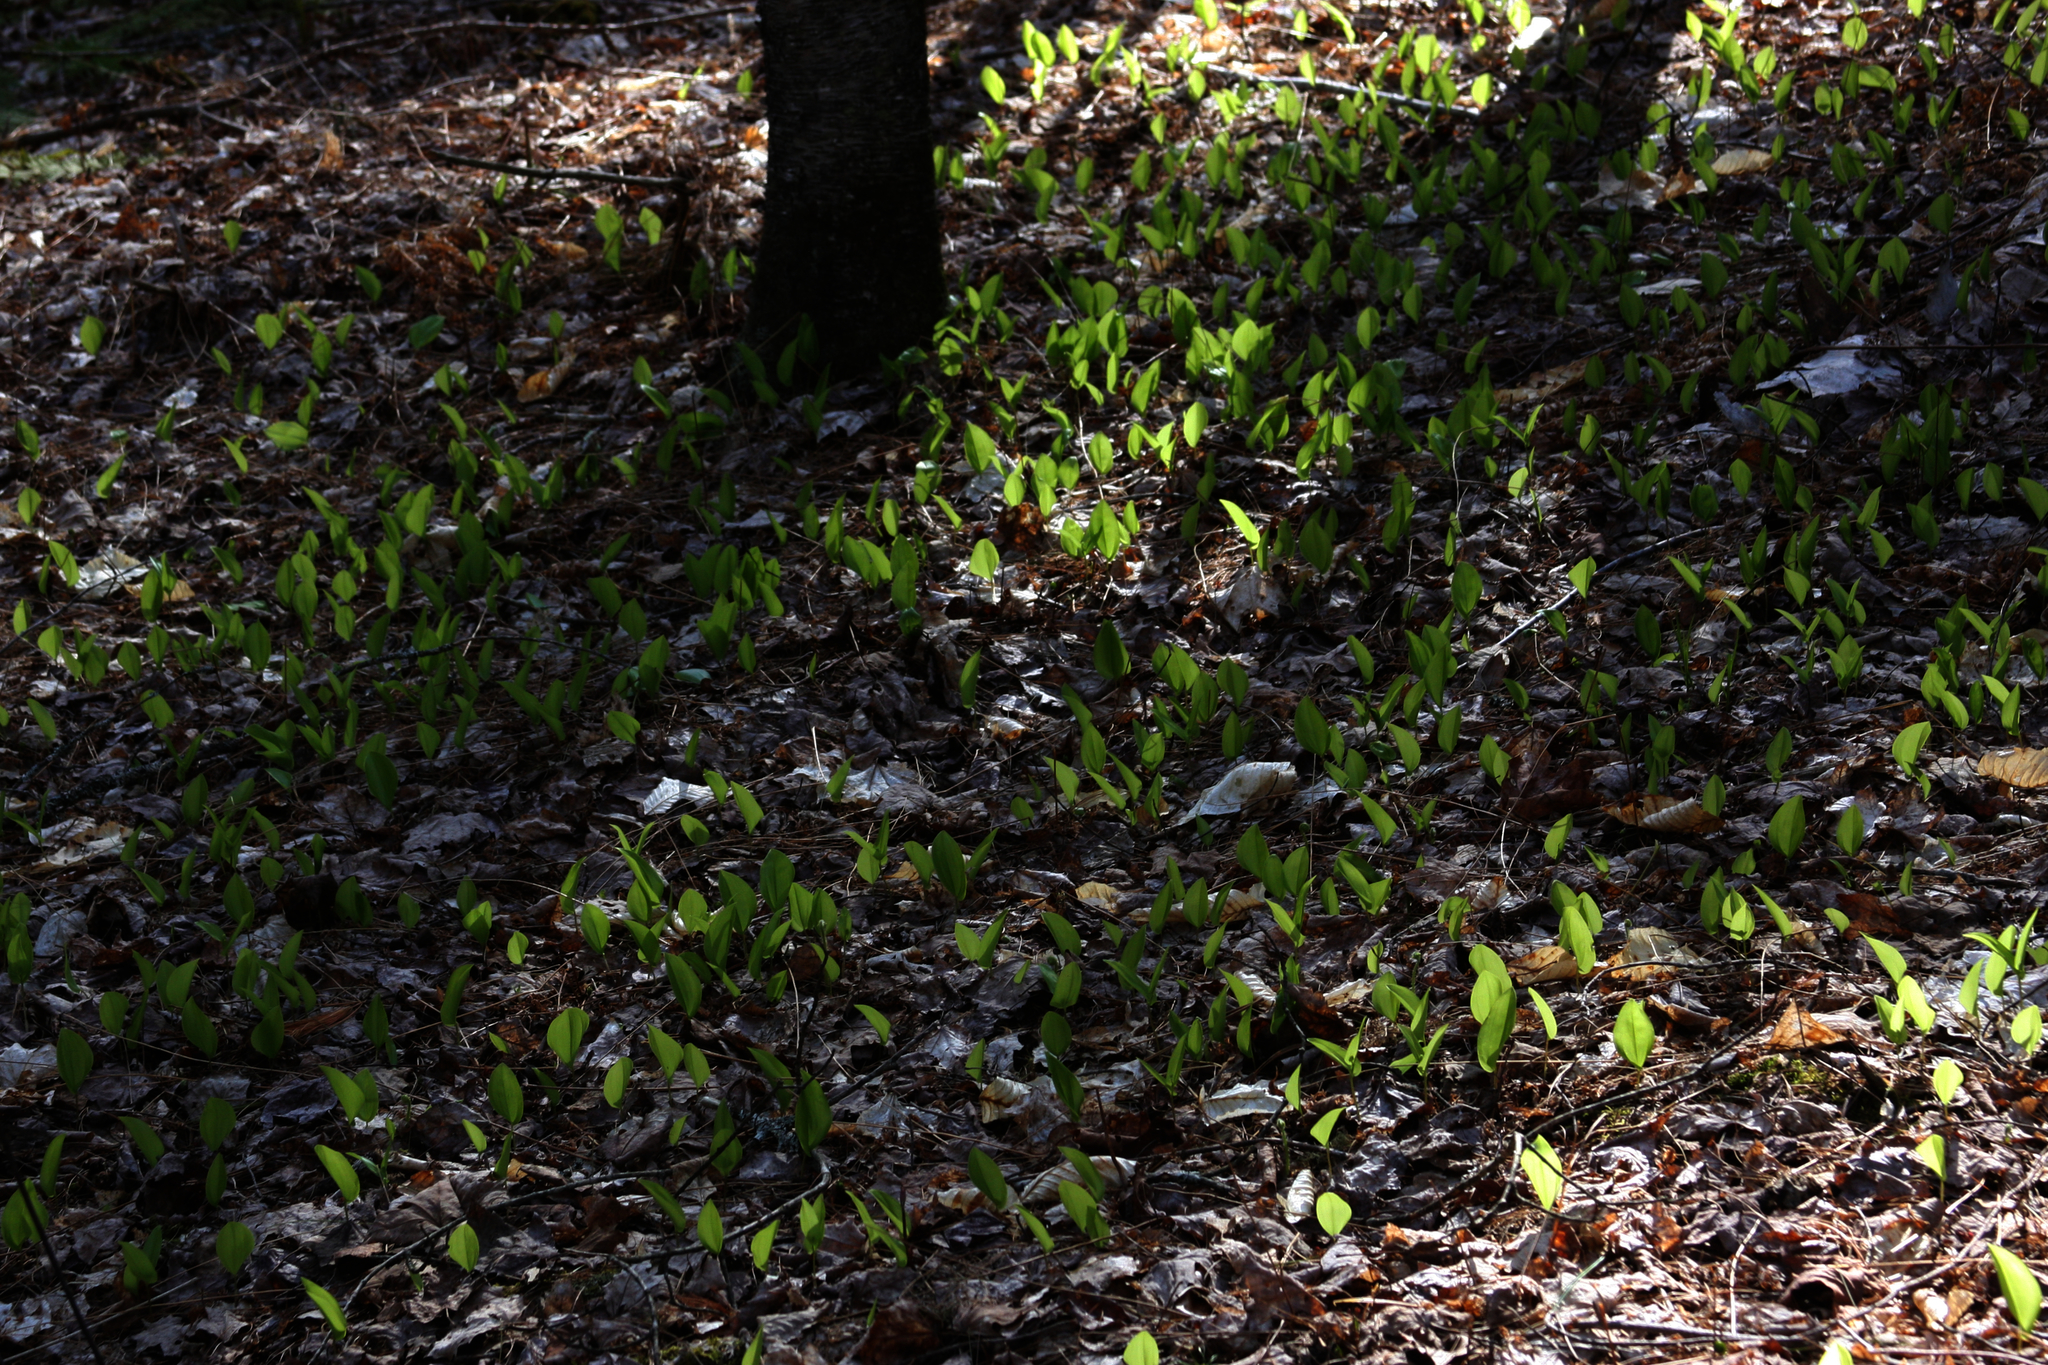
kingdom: Plantae
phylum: Tracheophyta
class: Liliopsida
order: Asparagales
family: Asparagaceae
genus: Maianthemum
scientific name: Maianthemum canadense
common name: False lily-of-the-valley
